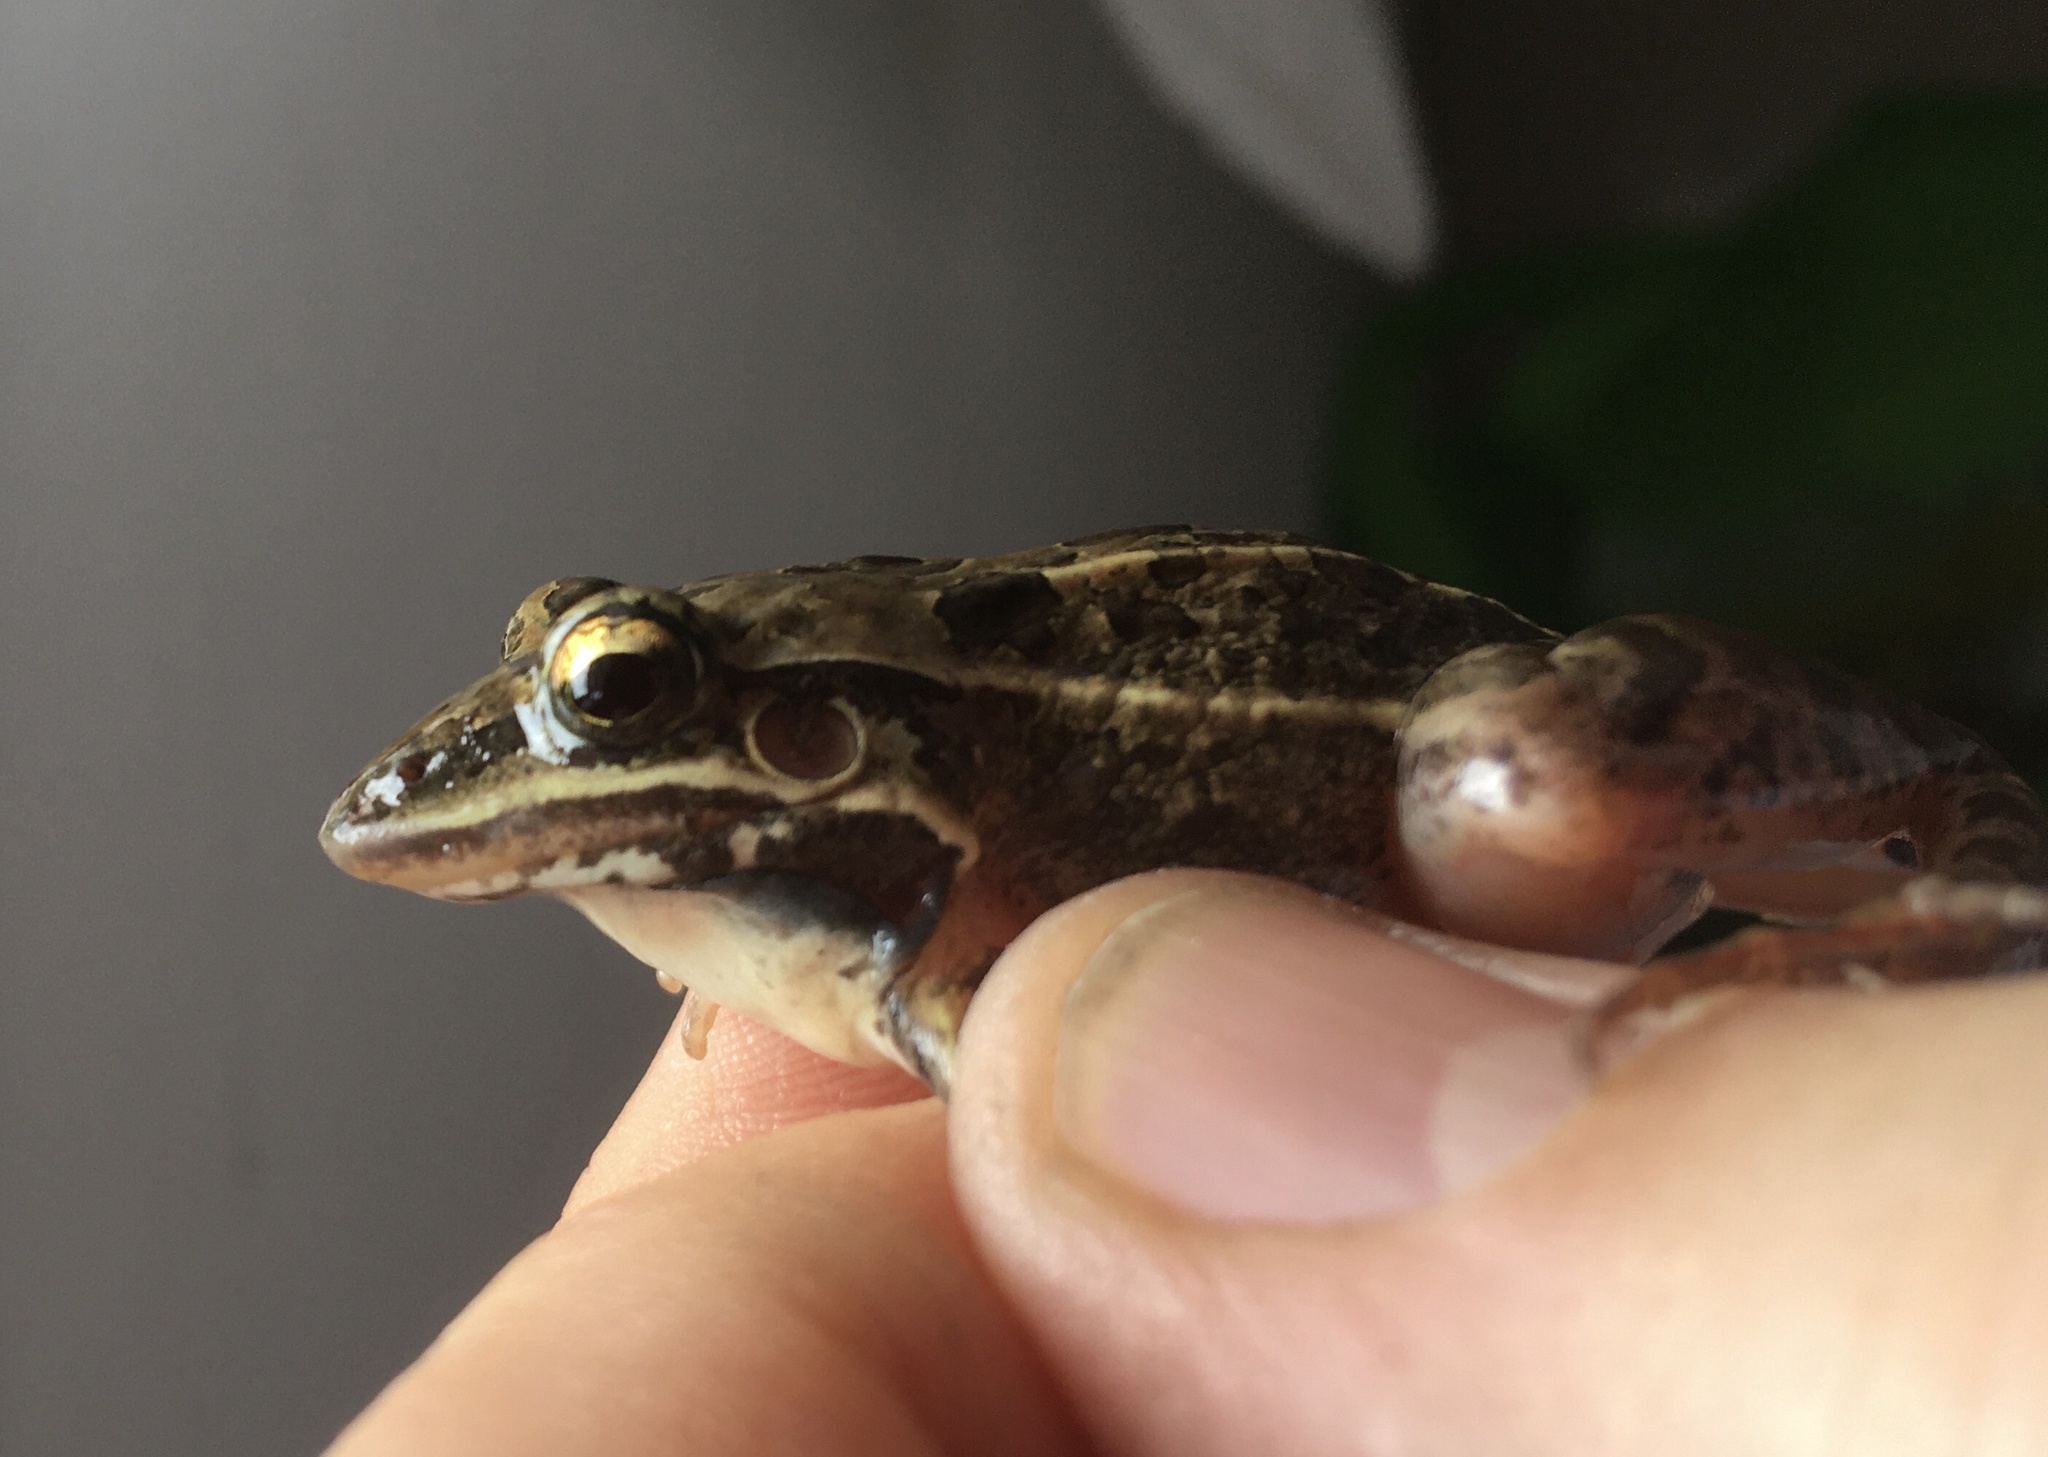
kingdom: Animalia
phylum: Chordata
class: Amphibia
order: Anura
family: Leptodactylidae
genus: Leptodactylus
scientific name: Leptodactylus fuscus
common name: Rufous frog
